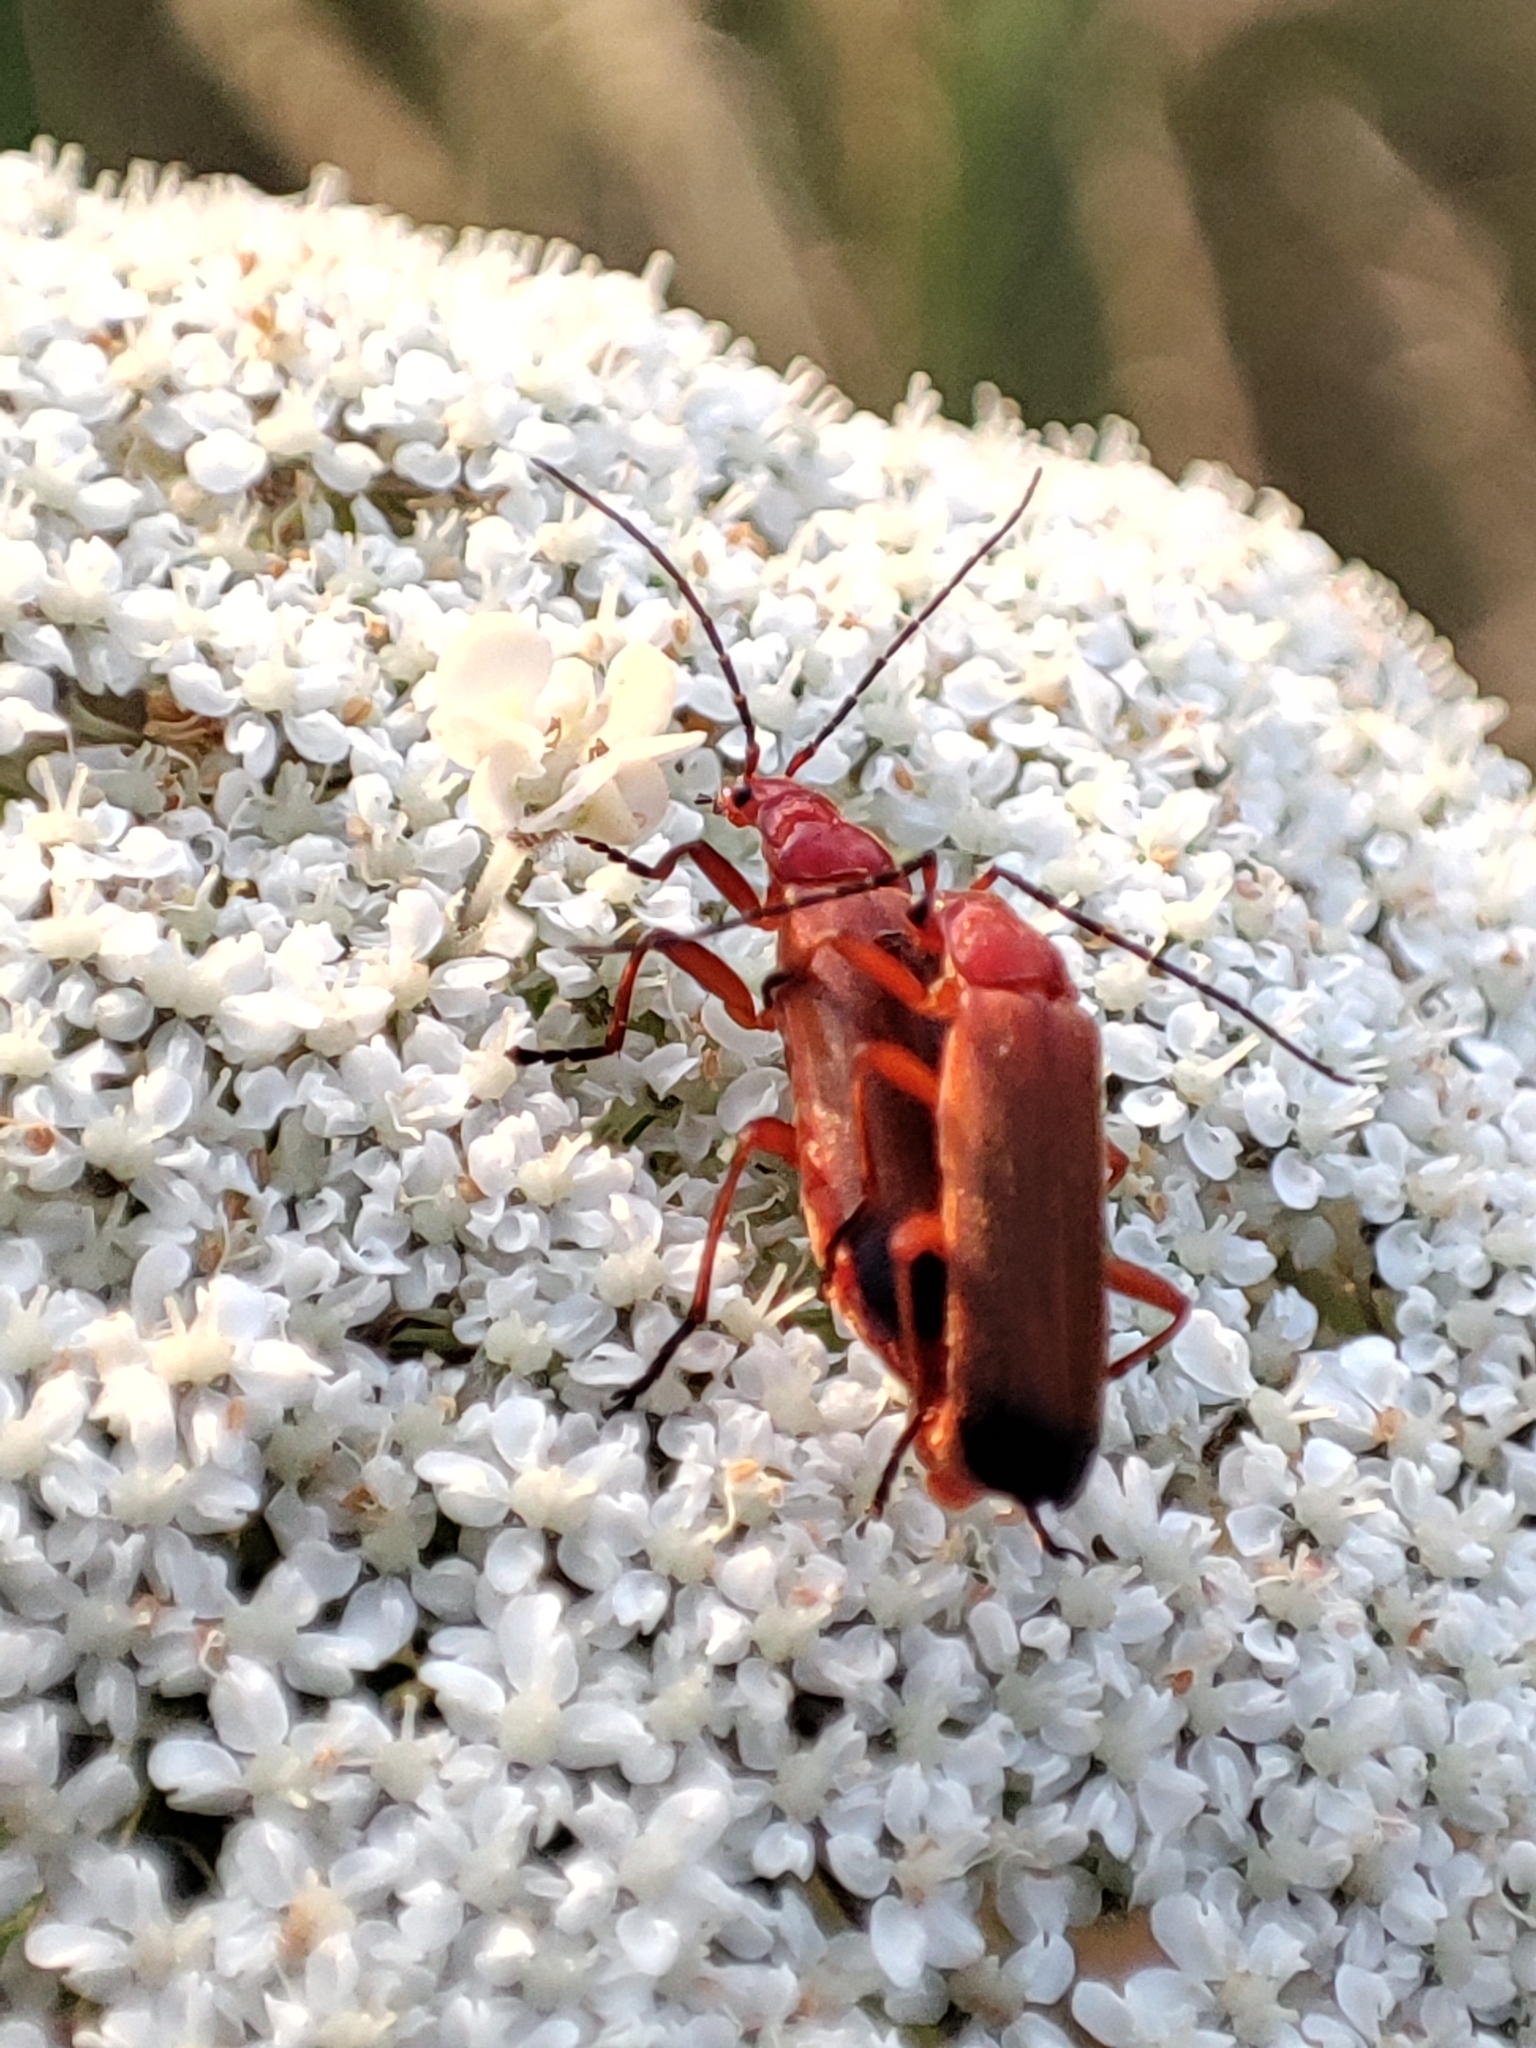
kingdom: Animalia
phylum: Arthropoda
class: Insecta
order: Coleoptera
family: Cantharidae
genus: Rhagonycha
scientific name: Rhagonycha fulva
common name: Common red soldier beetle
